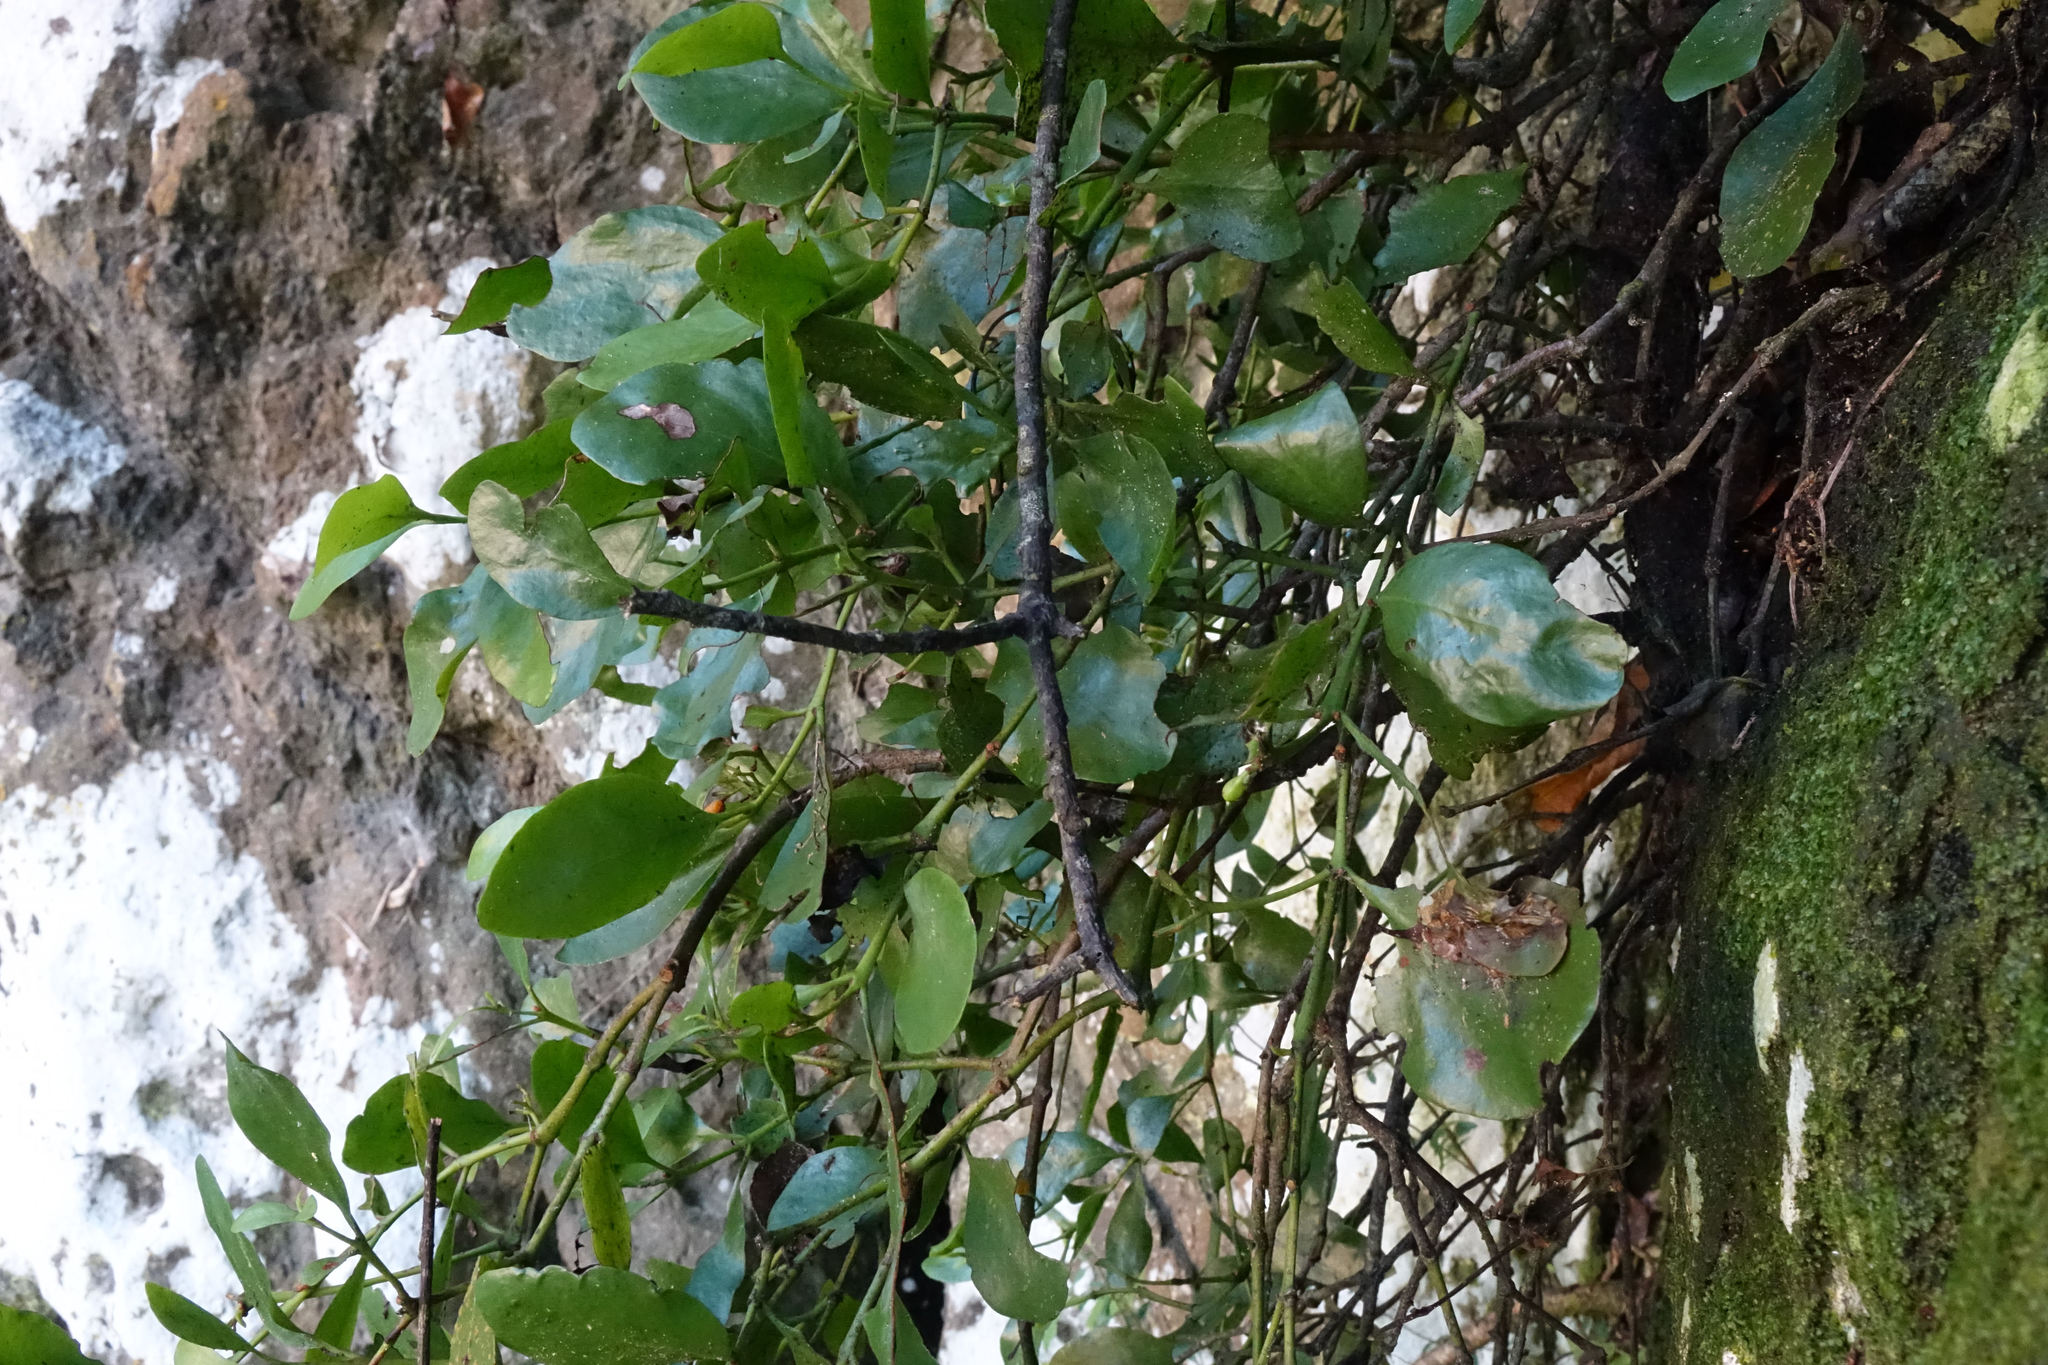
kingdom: Plantae
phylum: Tracheophyta
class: Magnoliopsida
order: Santalales
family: Loranthaceae
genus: Ileostylus
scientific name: Ileostylus micranthus
